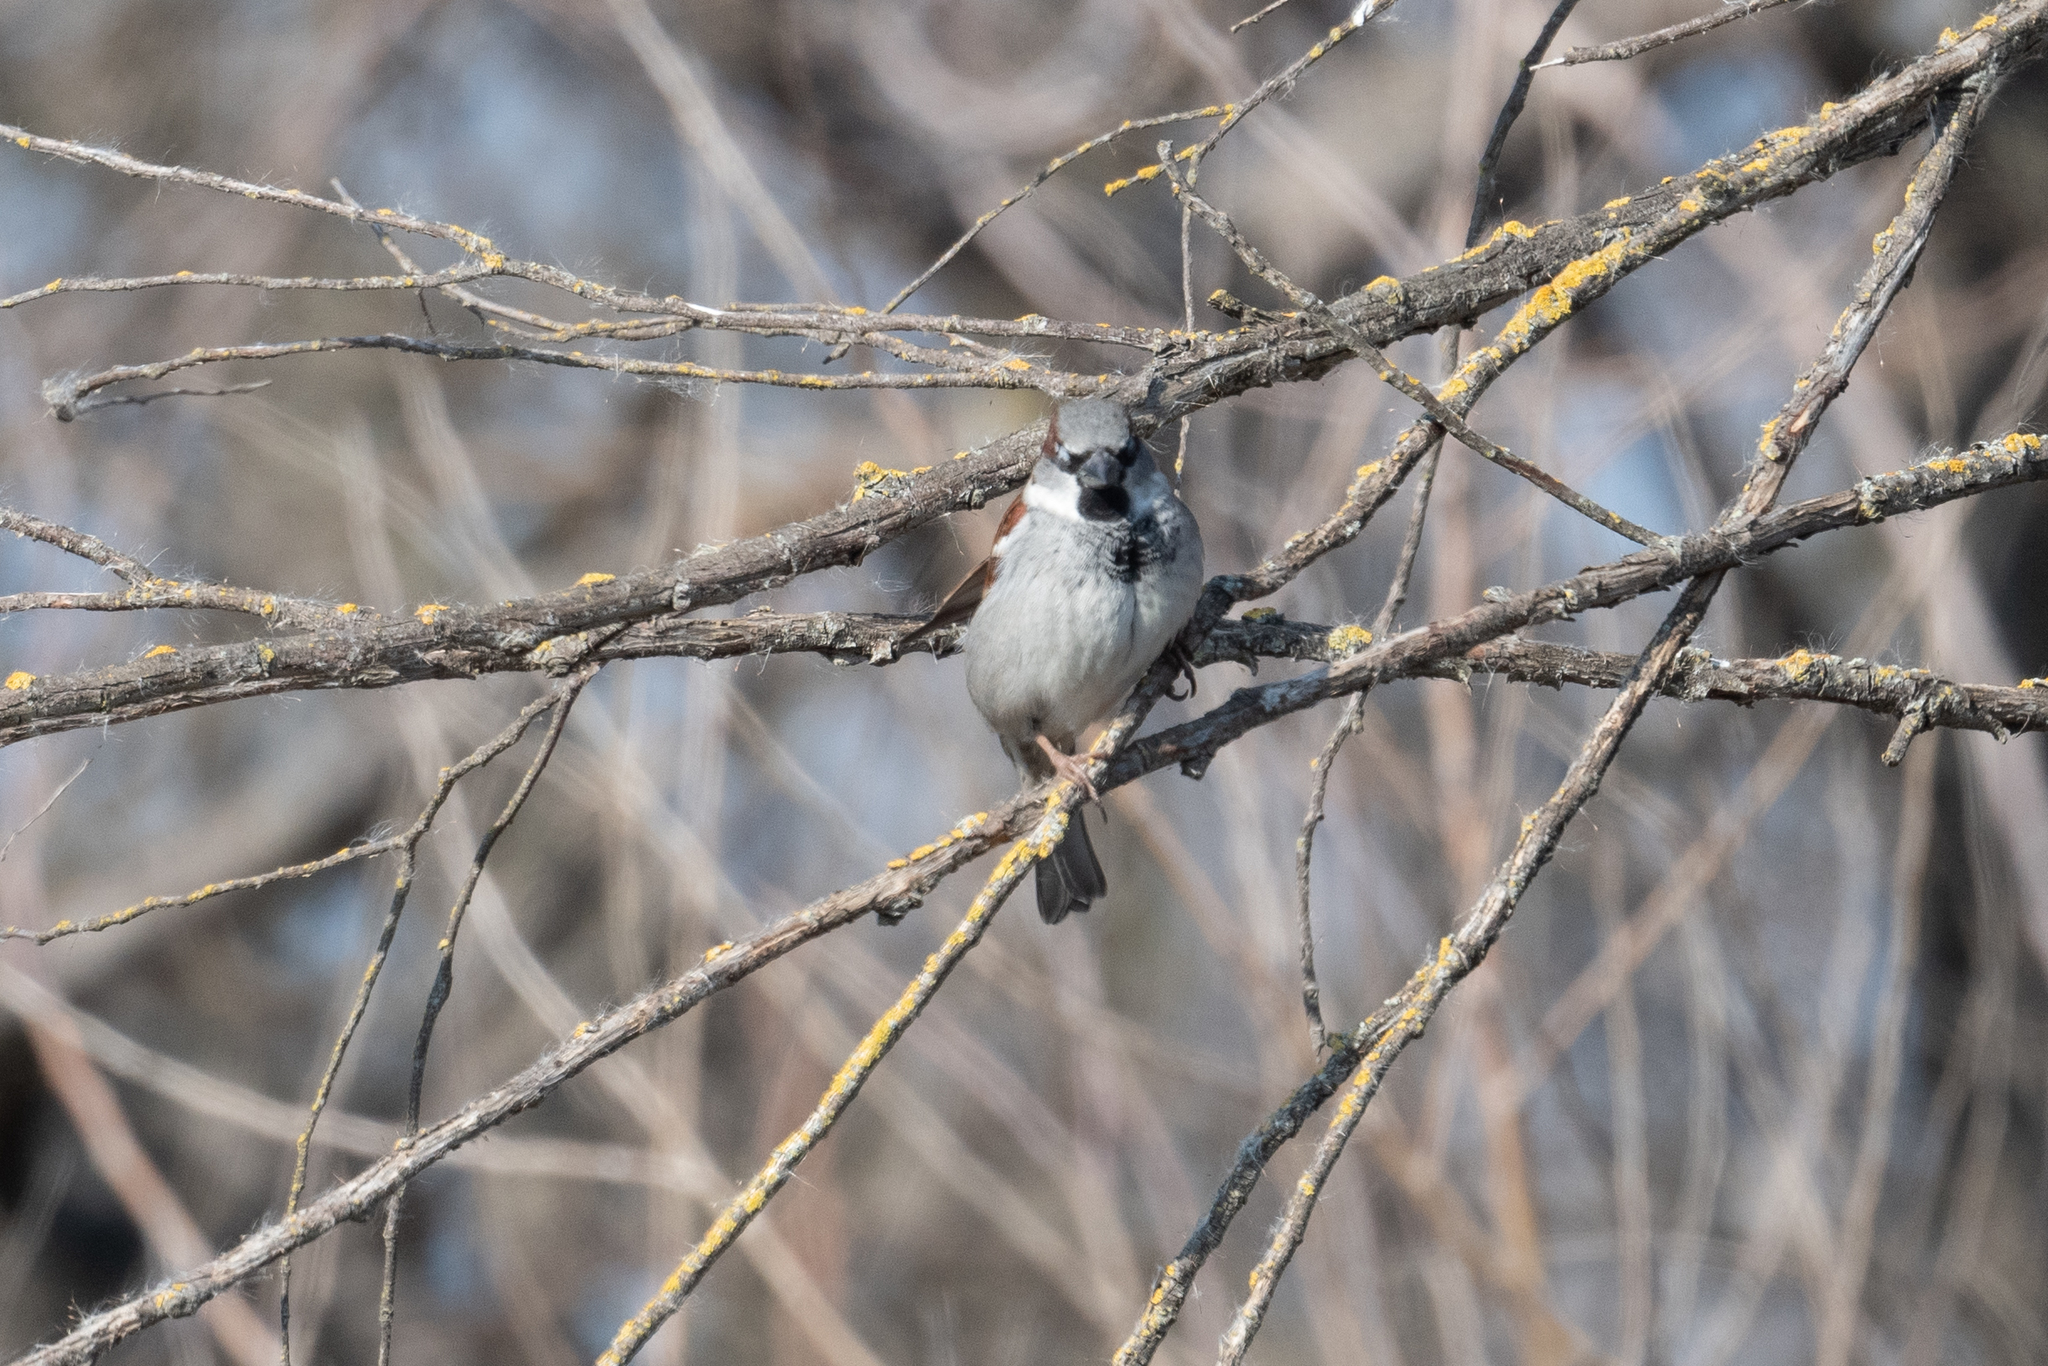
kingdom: Animalia
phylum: Chordata
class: Aves
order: Passeriformes
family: Passeridae
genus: Passer
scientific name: Passer domesticus
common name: House sparrow
